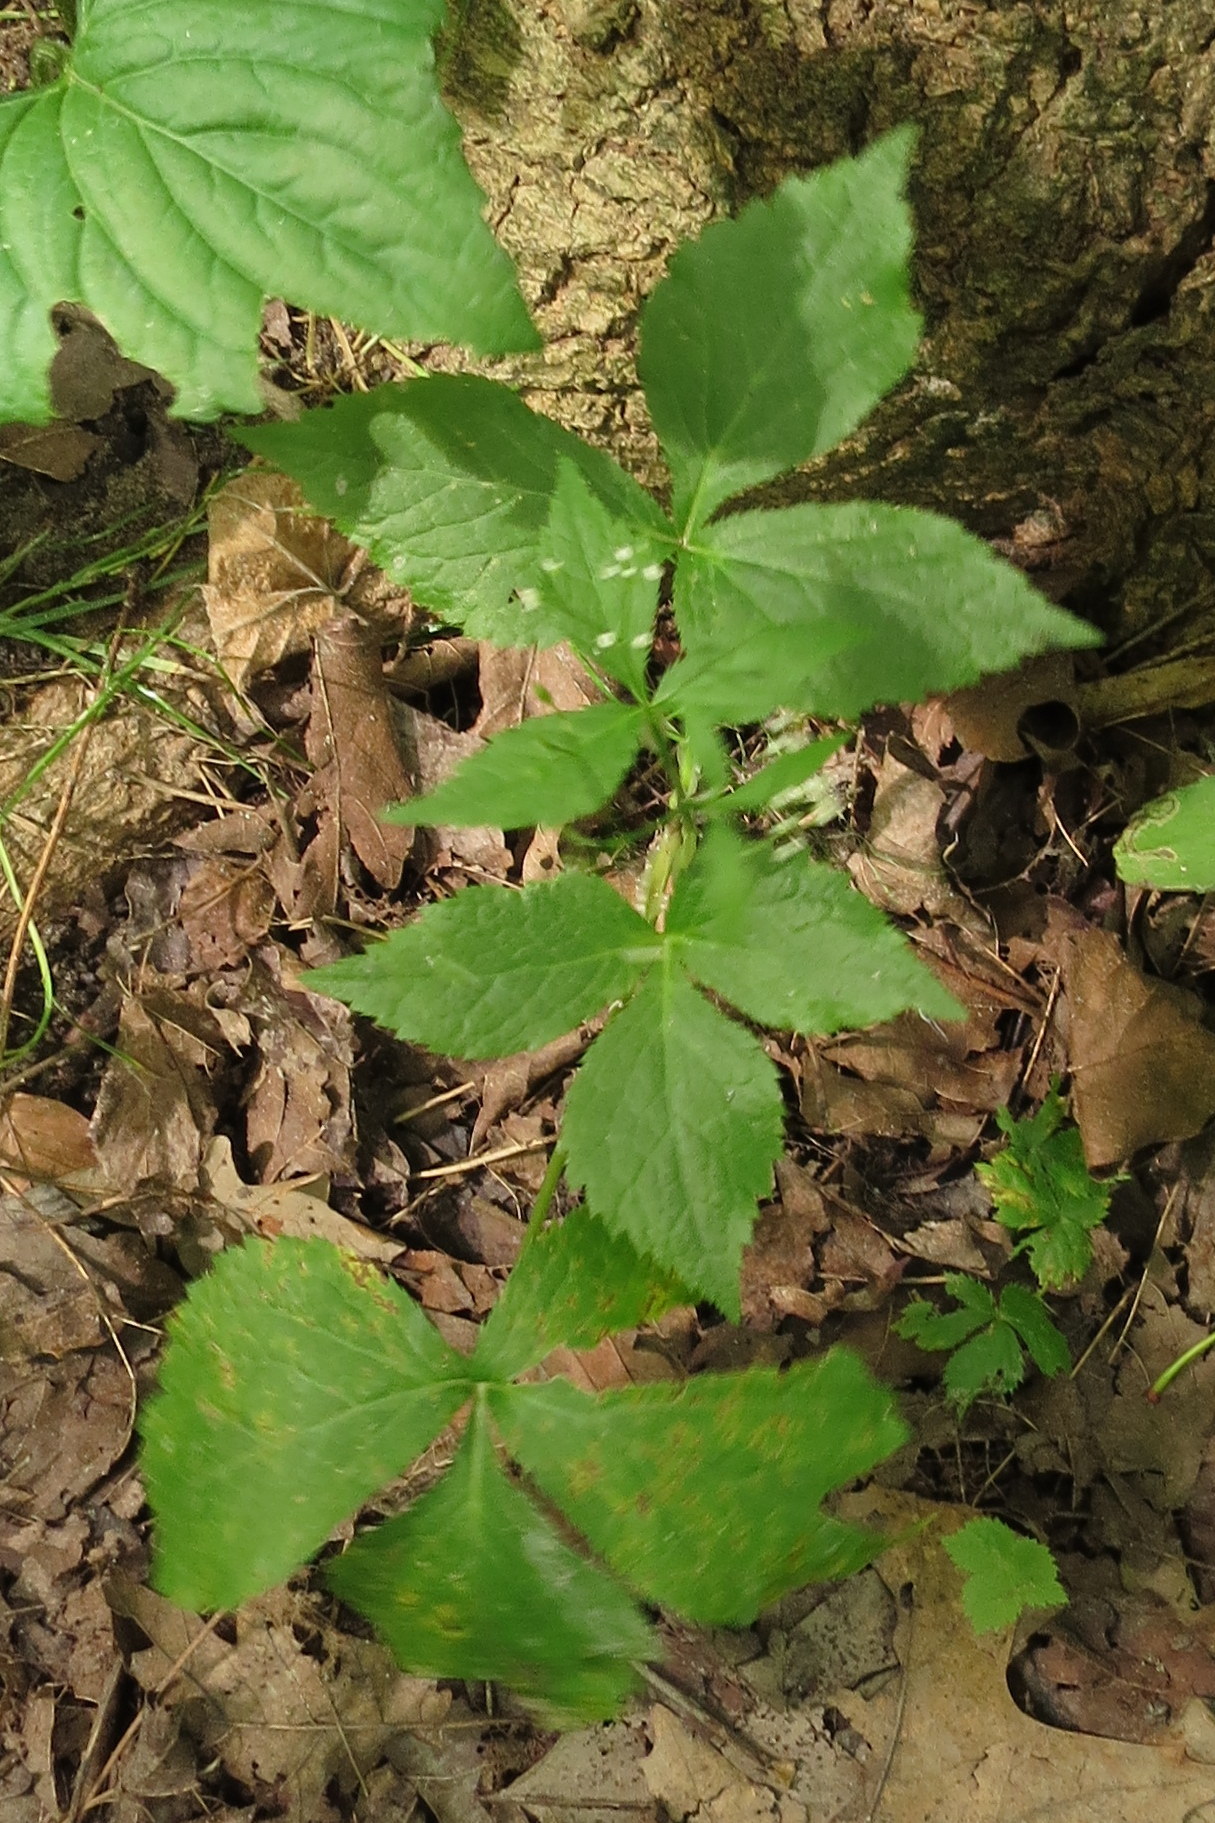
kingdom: Plantae
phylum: Tracheophyta
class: Magnoliopsida
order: Apiales
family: Apiaceae
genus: Cryptotaenia
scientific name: Cryptotaenia canadensis
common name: Honewort
